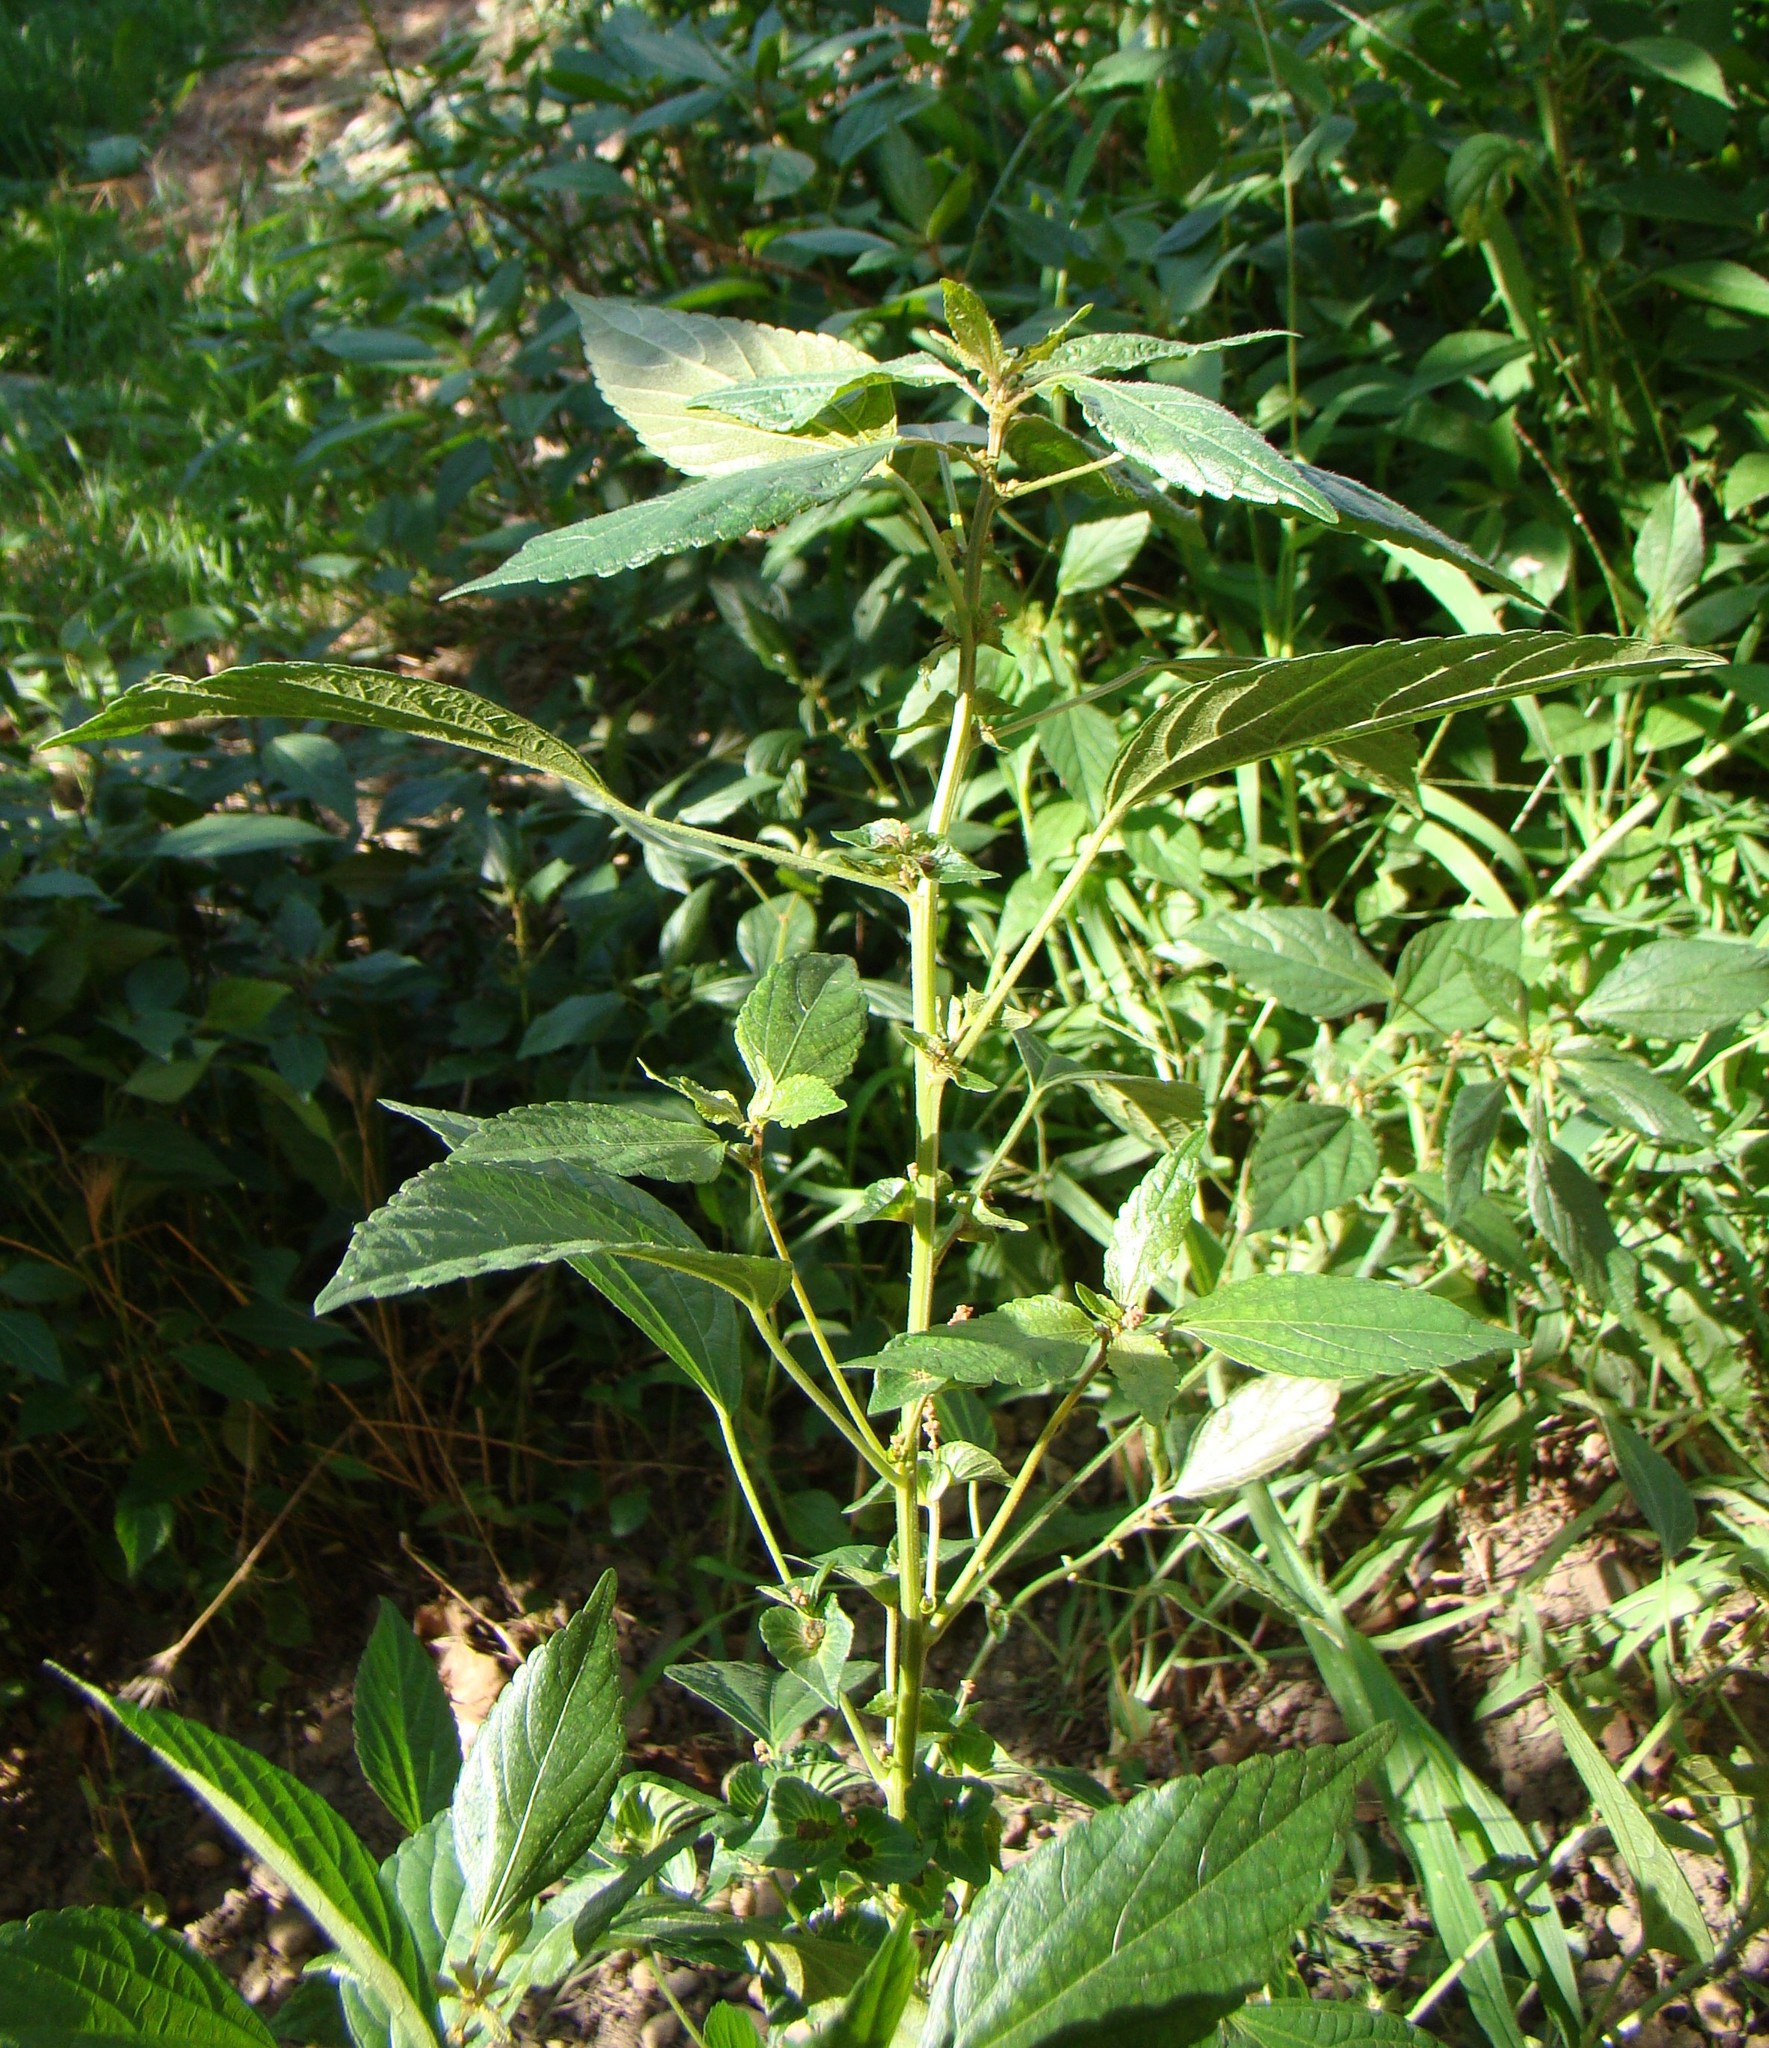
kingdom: Plantae
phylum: Tracheophyta
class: Magnoliopsida
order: Malpighiales
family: Euphorbiaceae
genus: Acalypha
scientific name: Acalypha australis
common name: Asian copperleaf
